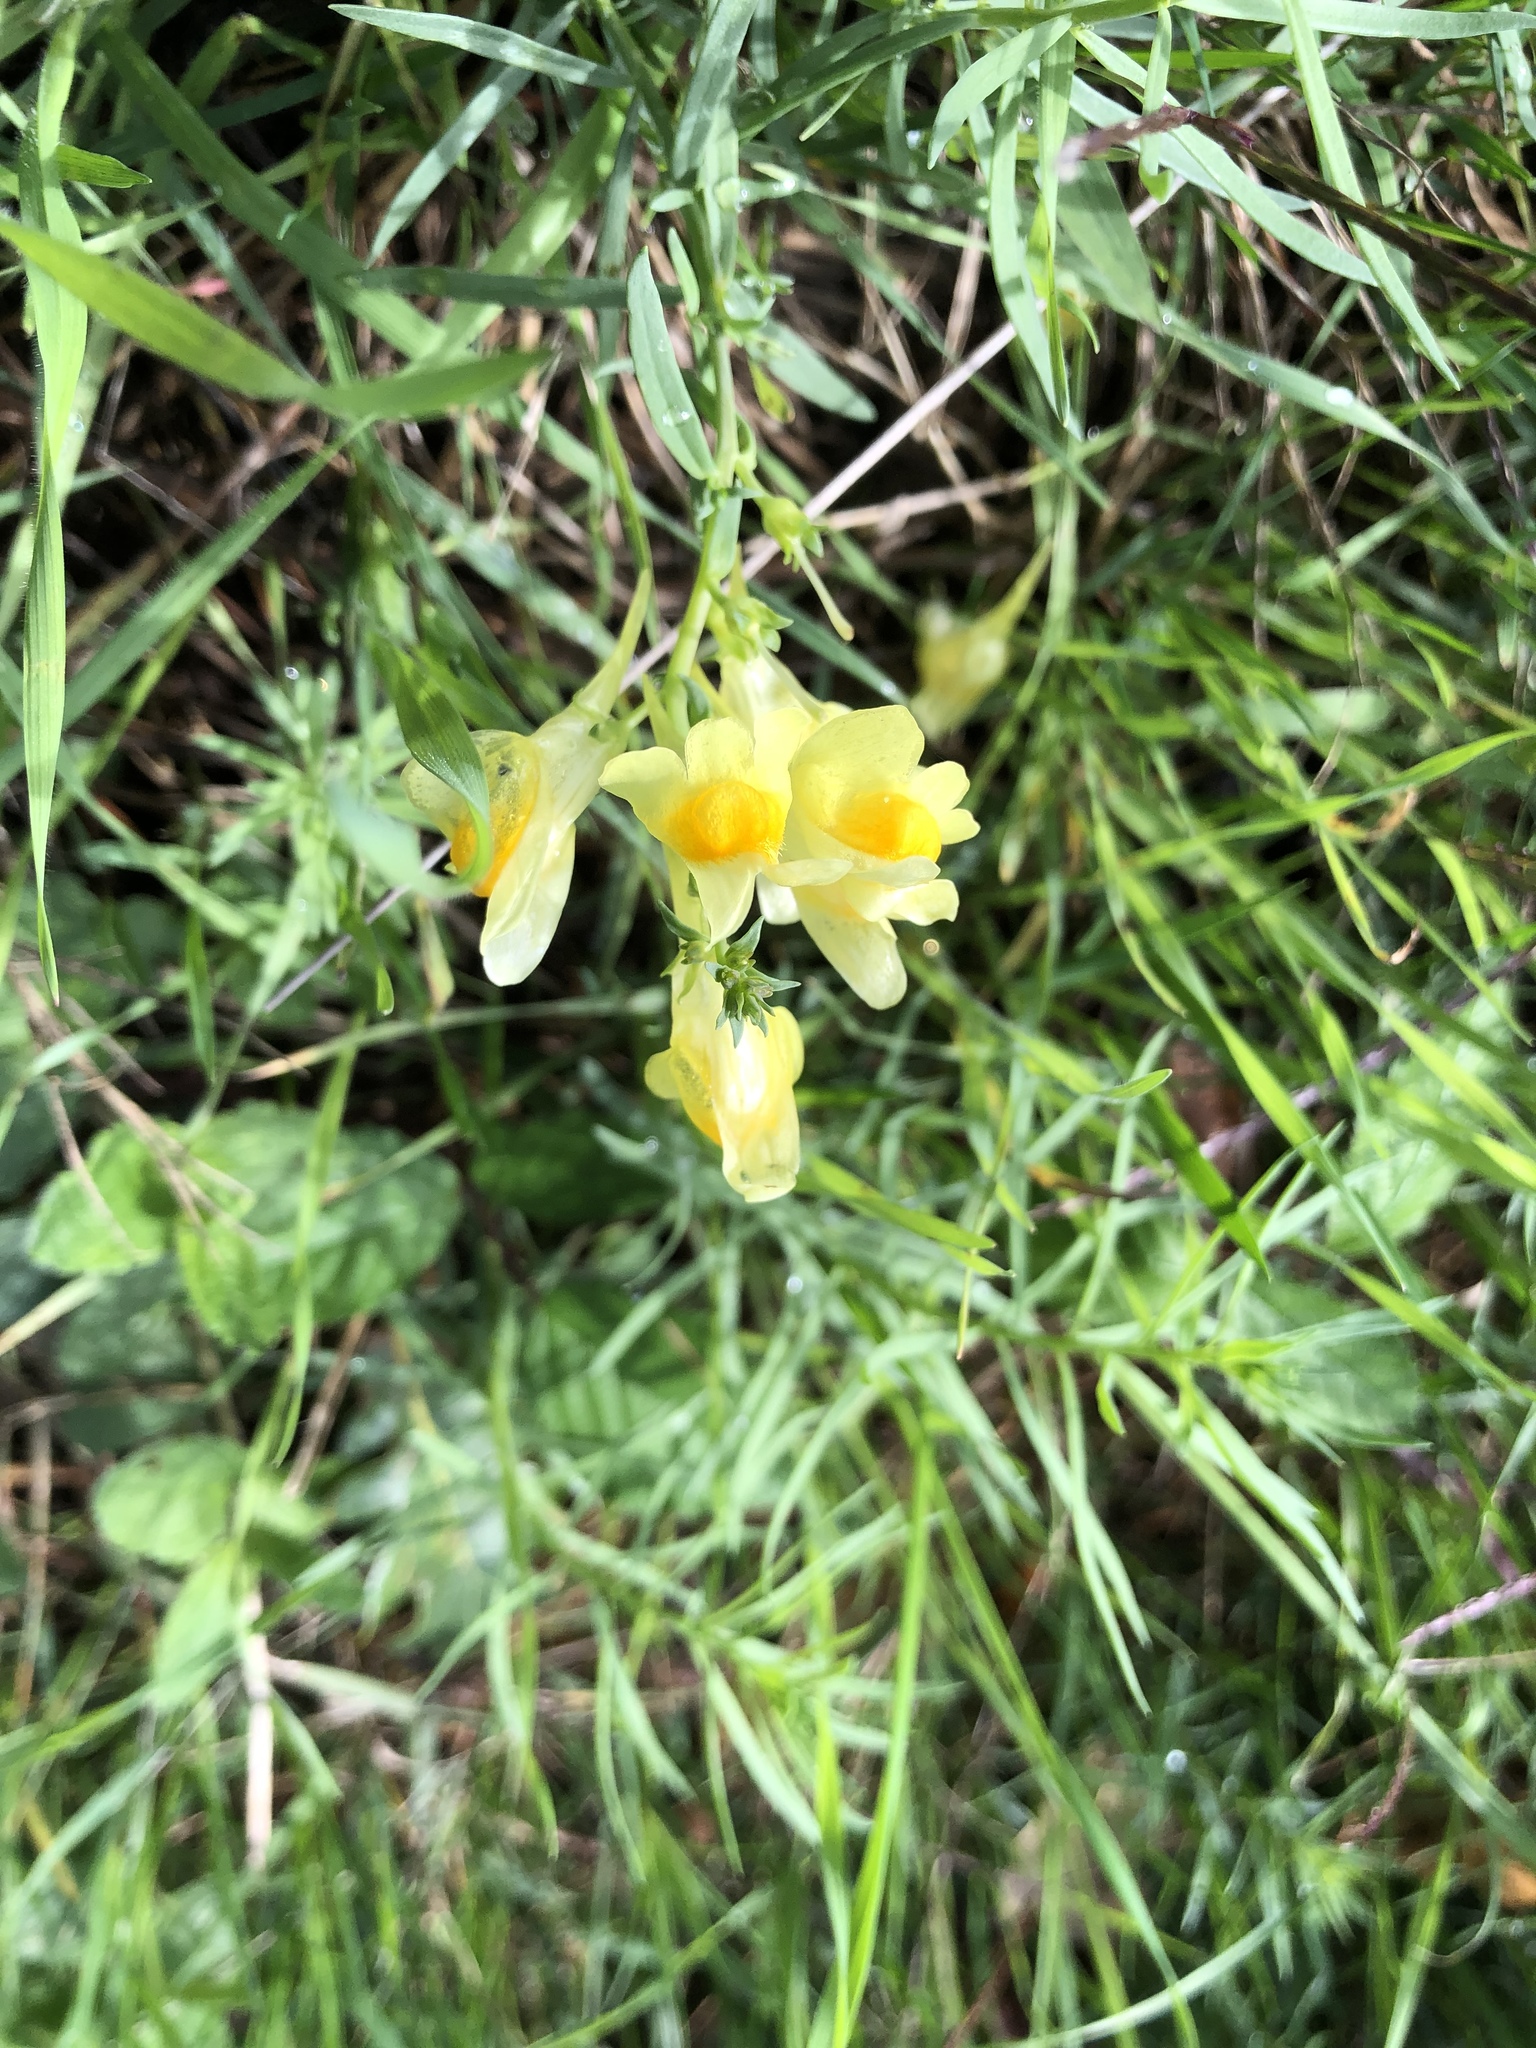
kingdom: Plantae
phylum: Tracheophyta
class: Magnoliopsida
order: Lamiales
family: Plantaginaceae
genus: Linaria
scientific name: Linaria vulgaris
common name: Butter and eggs
